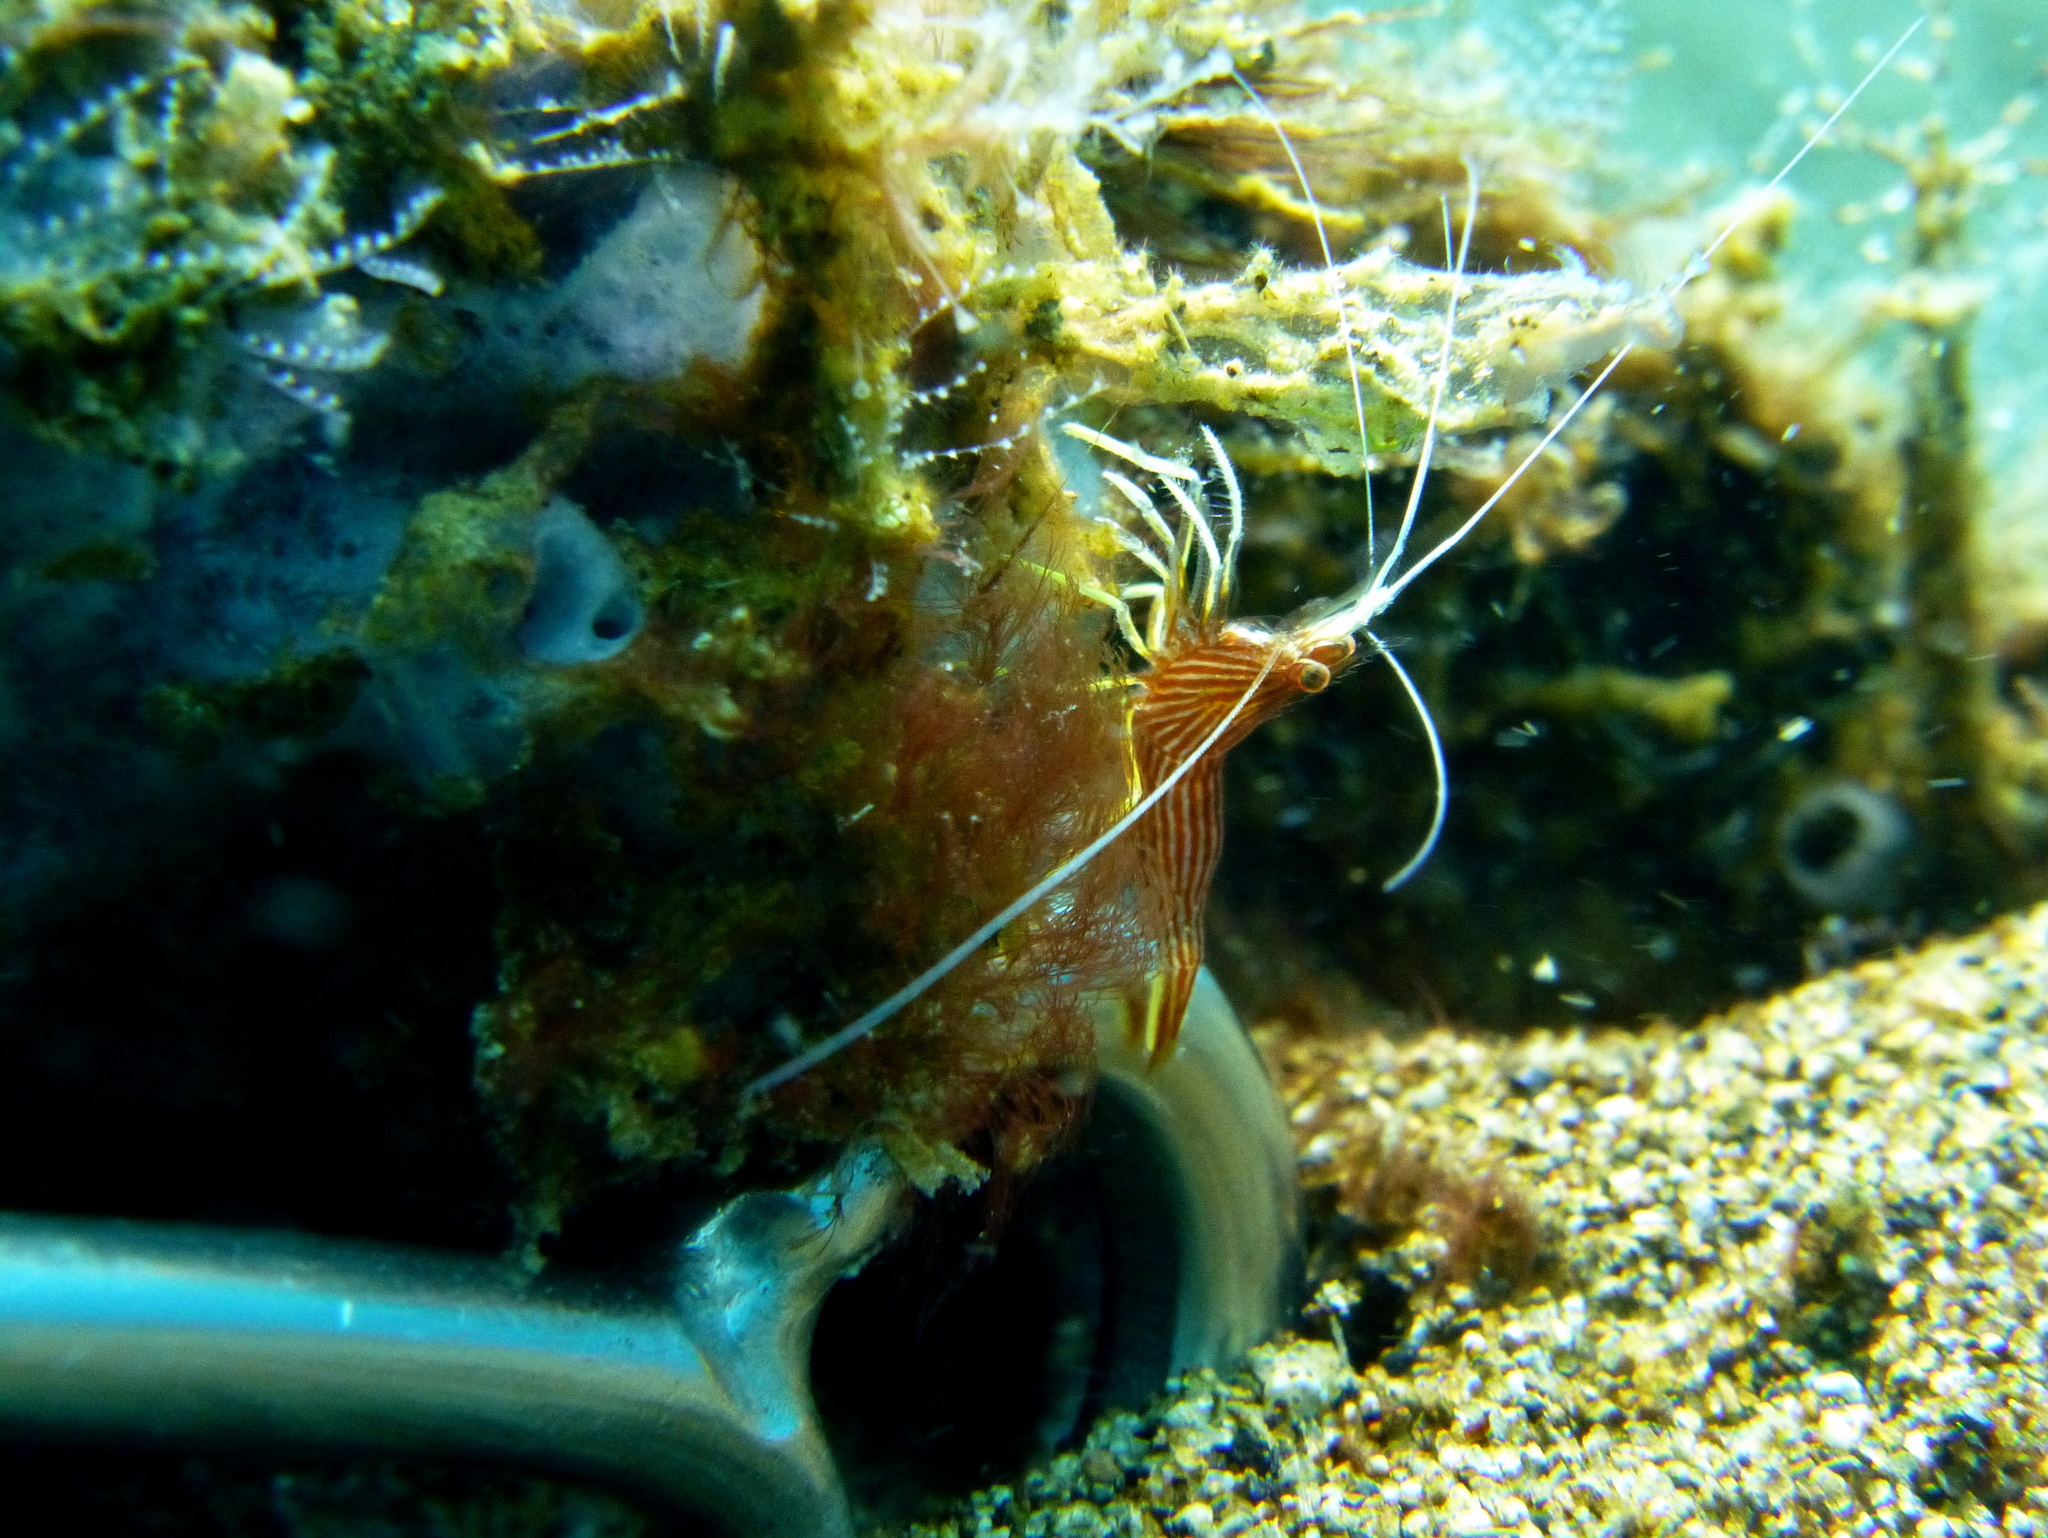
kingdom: Animalia
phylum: Arthropoda
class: Malacostraca
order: Decapoda
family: Lysmatidae
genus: Lysmatella
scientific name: Lysmatella prima
